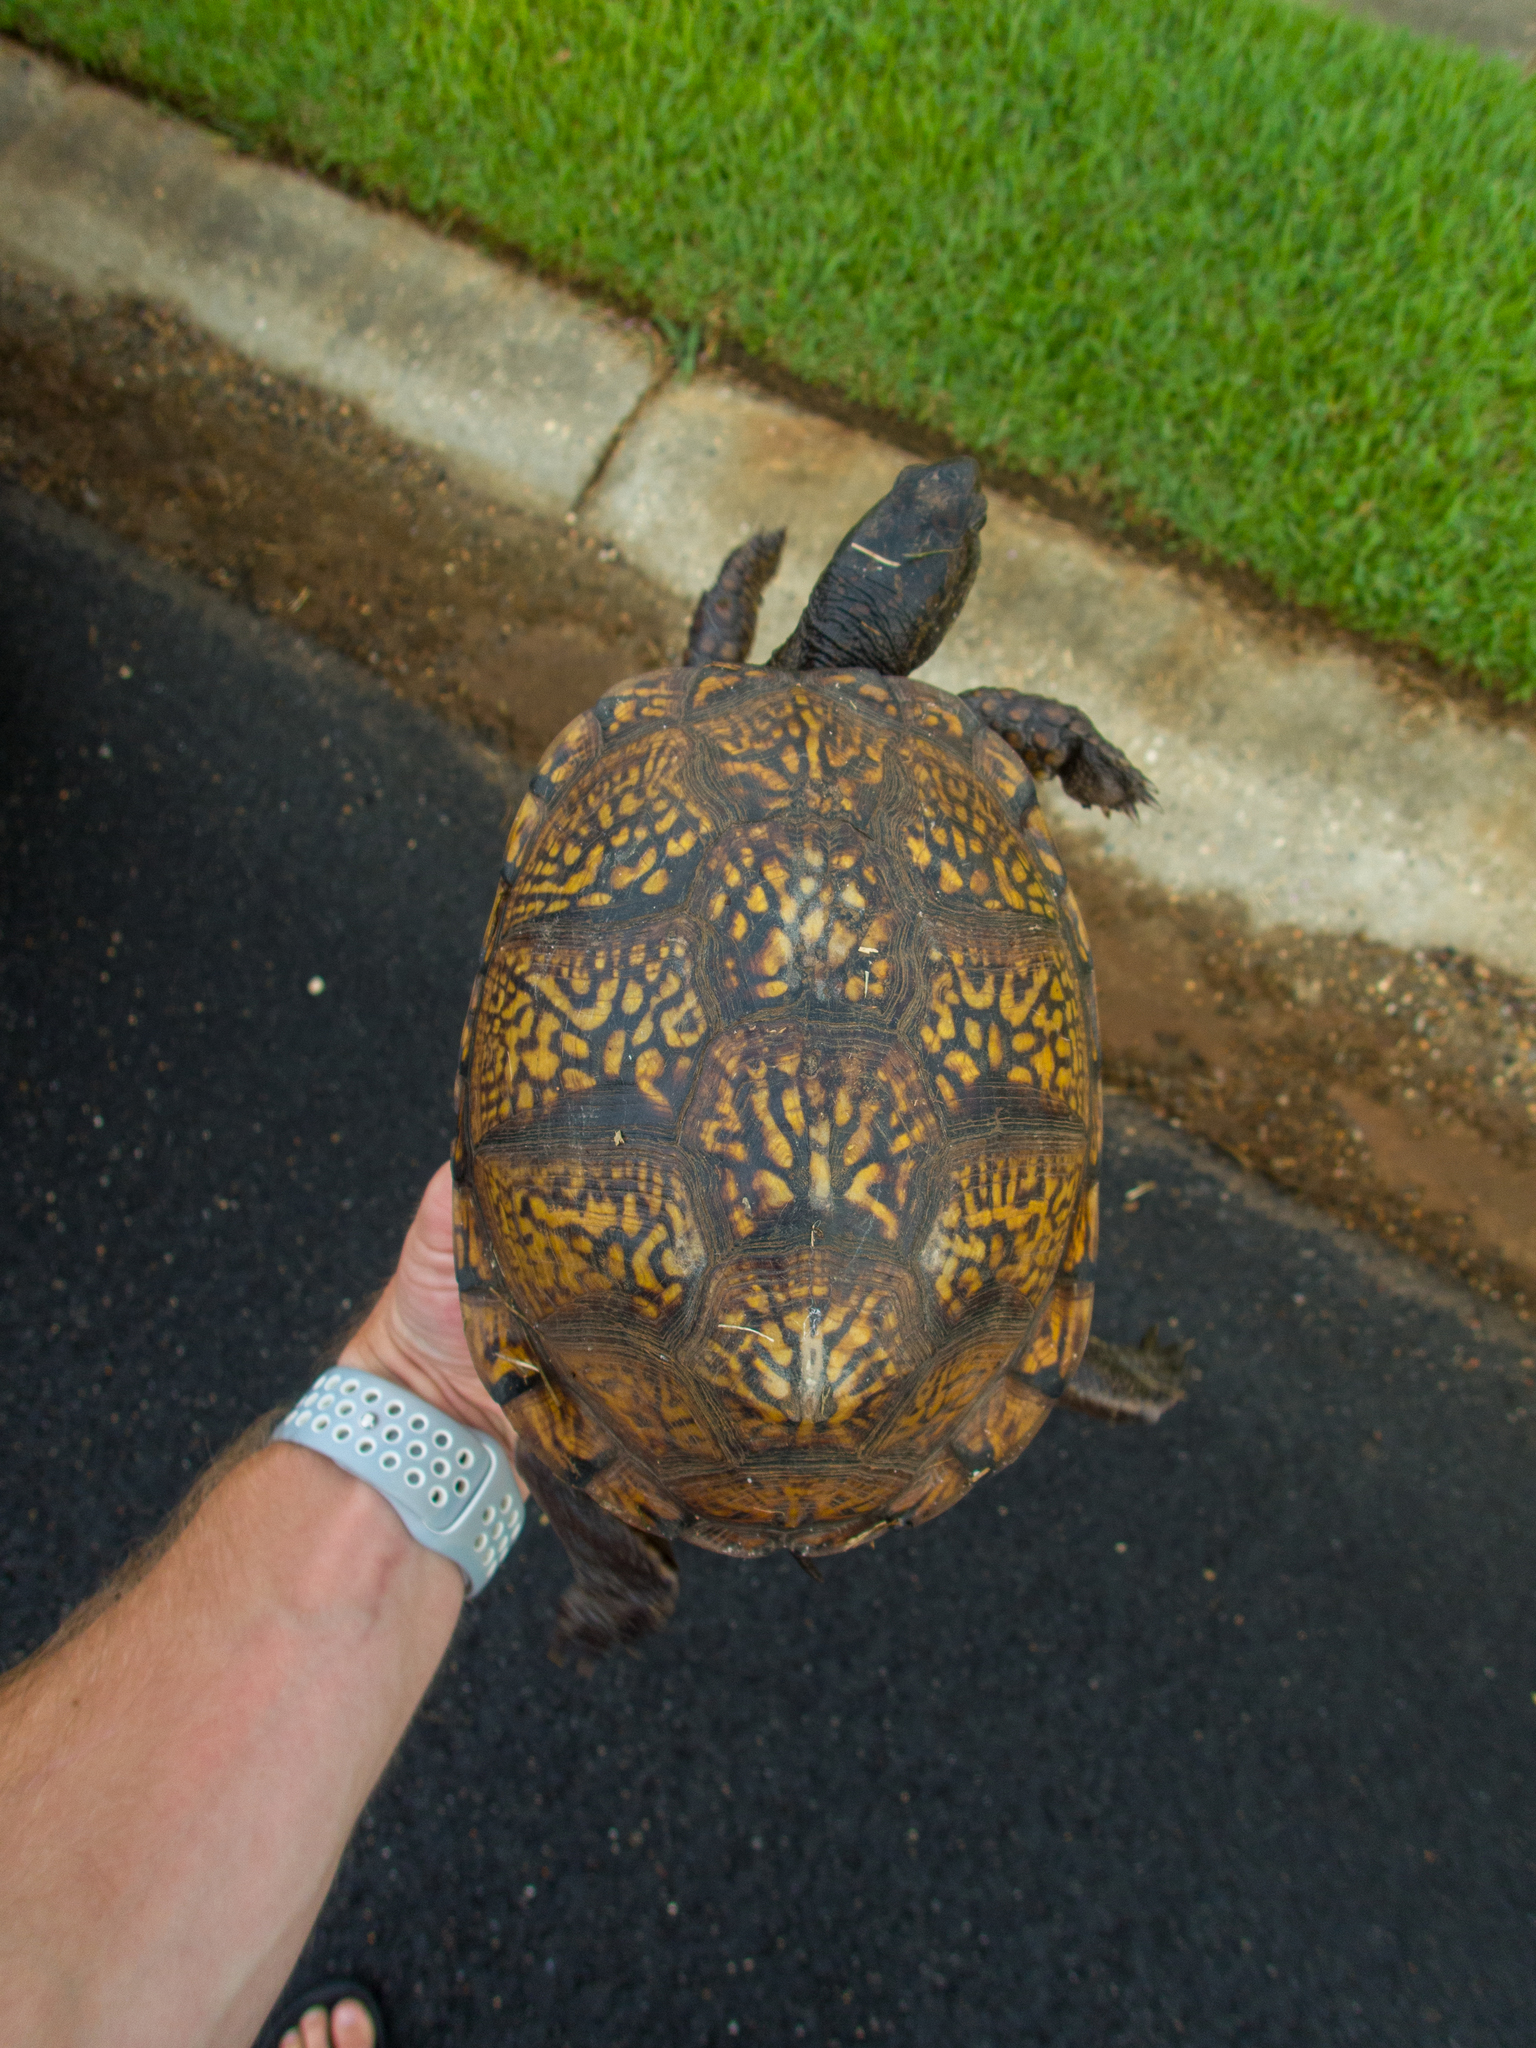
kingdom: Animalia
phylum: Chordata
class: Testudines
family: Emydidae
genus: Terrapene
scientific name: Terrapene carolina
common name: Common box turtle
